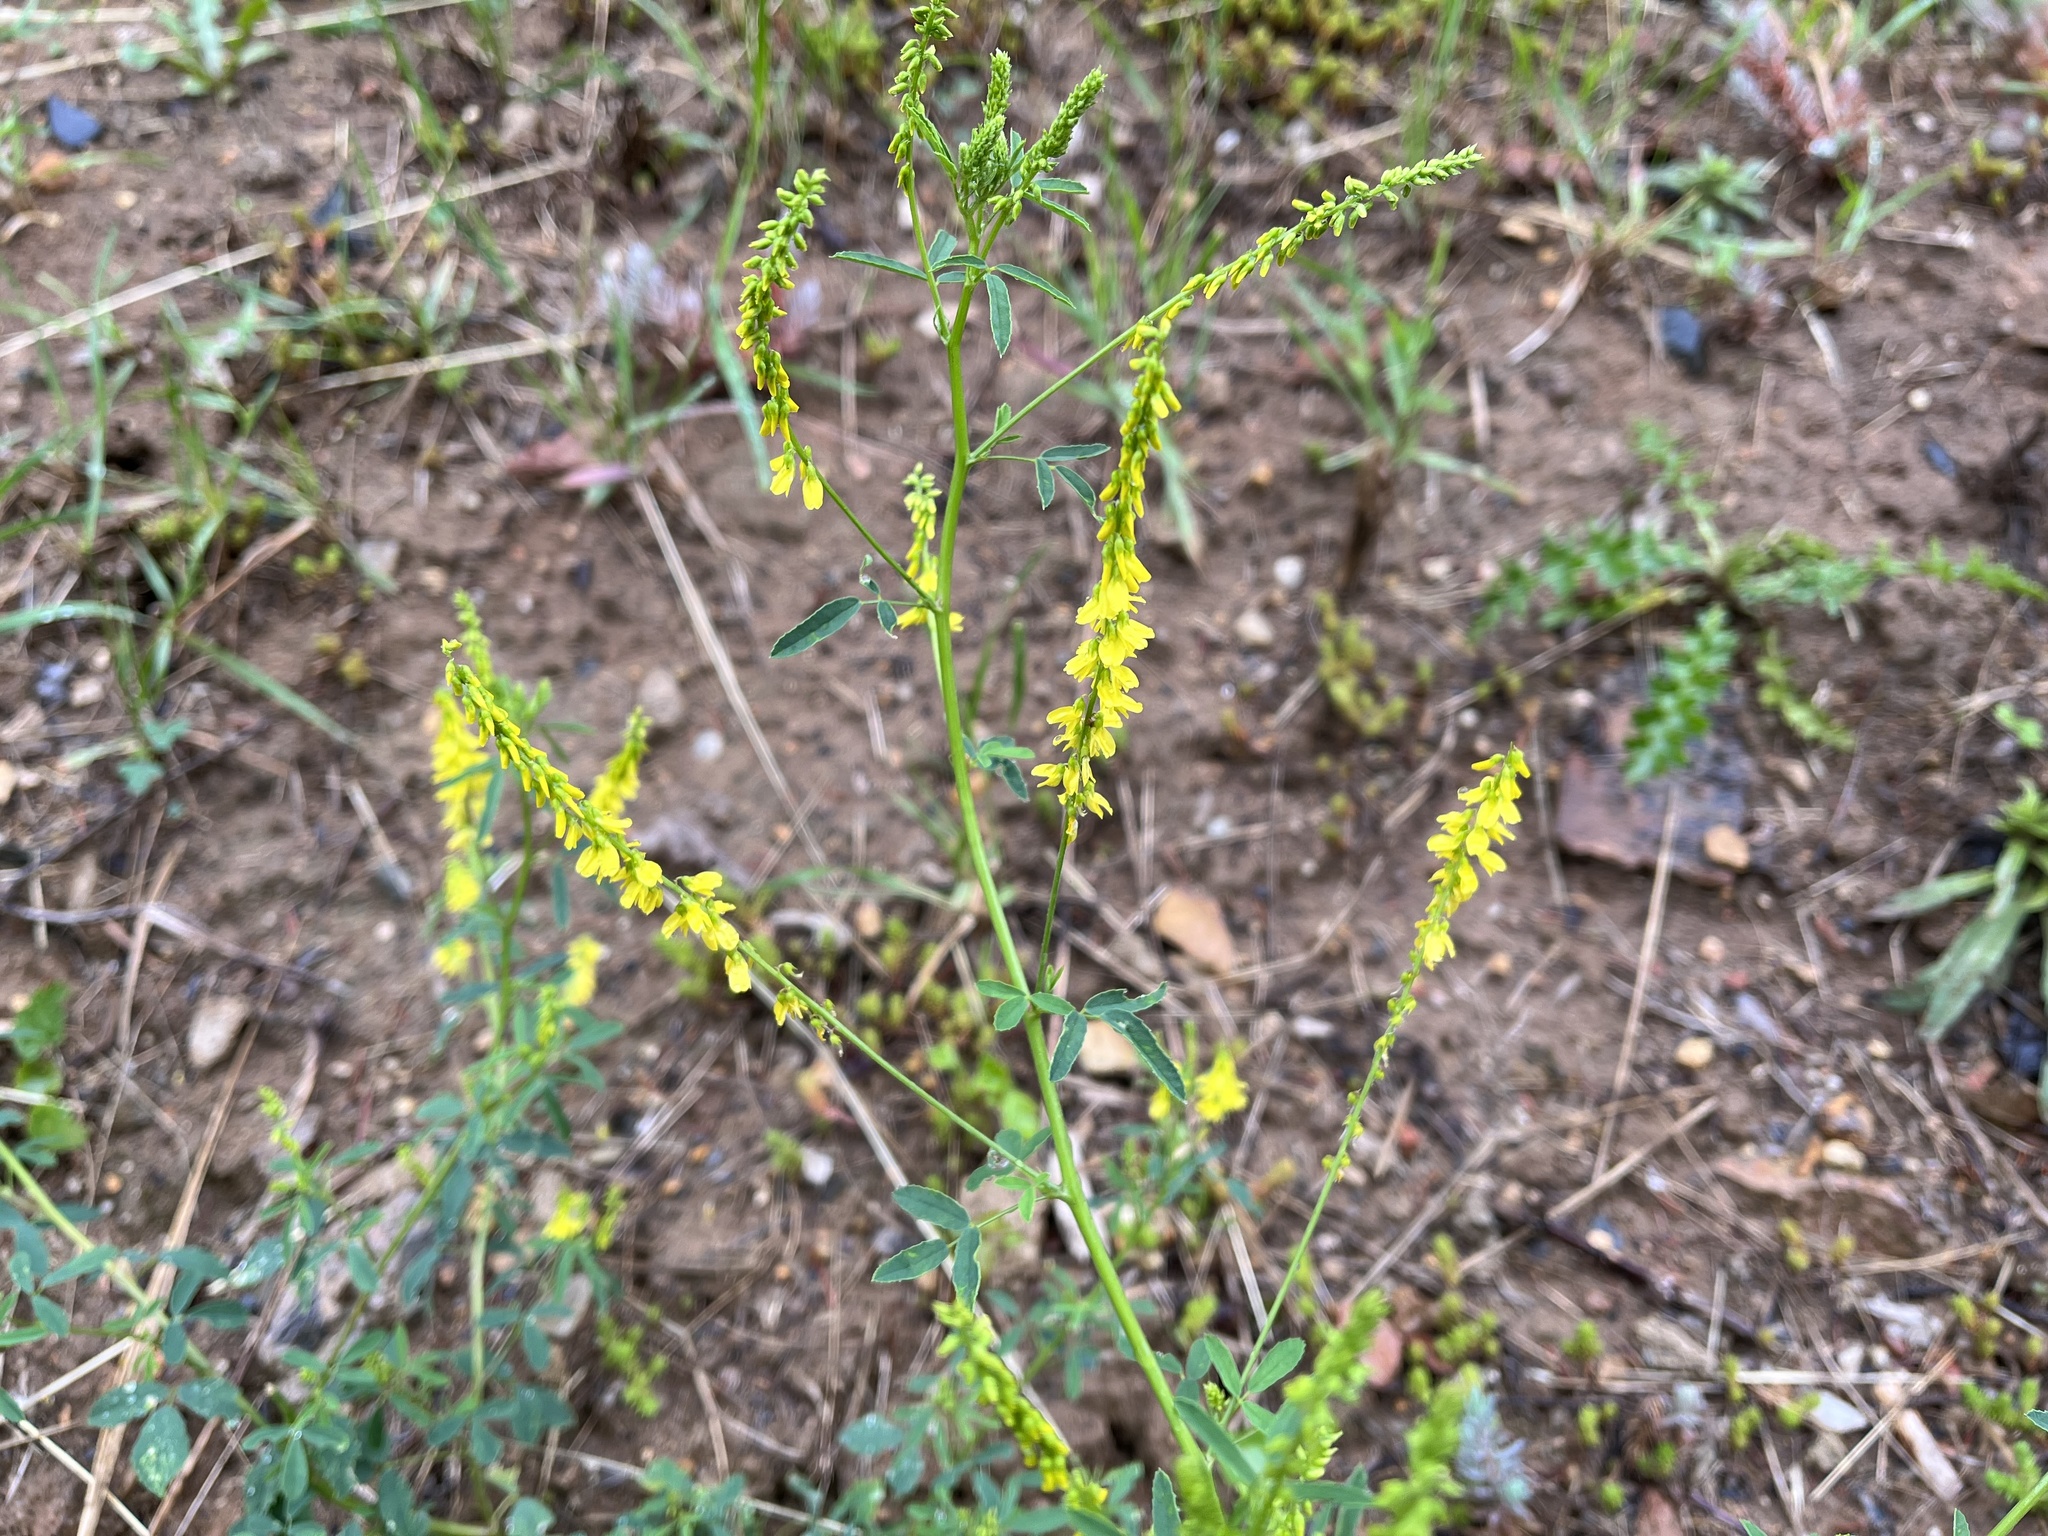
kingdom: Plantae
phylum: Tracheophyta
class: Magnoliopsida
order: Fabales
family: Fabaceae
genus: Melilotus
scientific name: Melilotus officinalis
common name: Sweetclover
